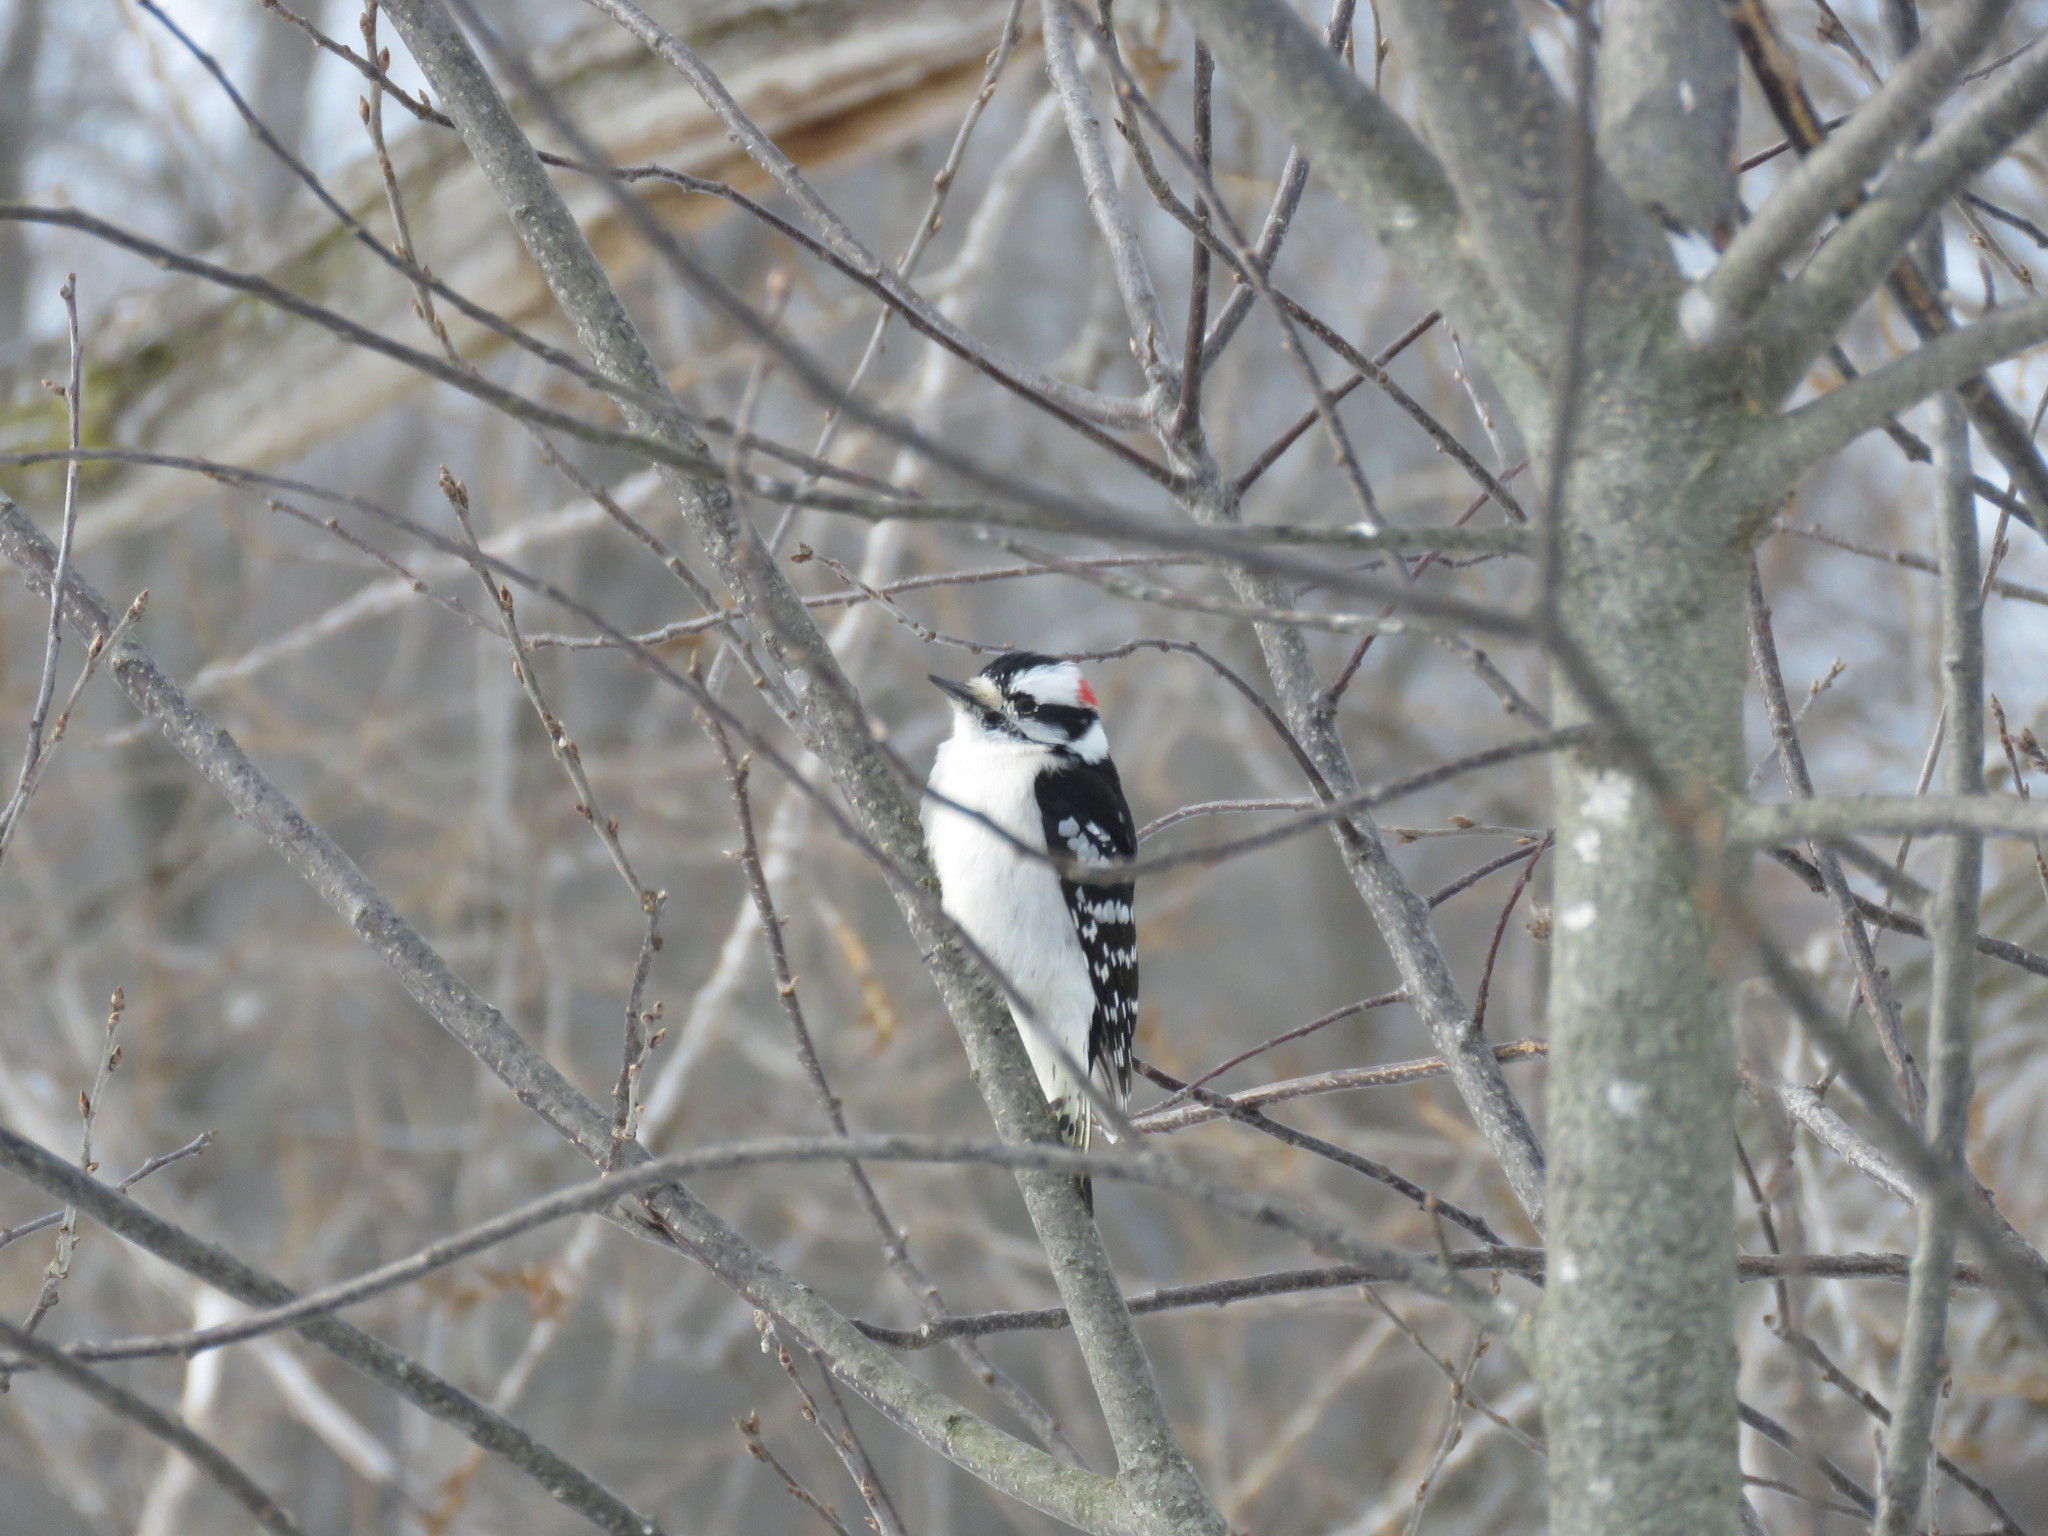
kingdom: Animalia
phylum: Chordata
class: Aves
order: Piciformes
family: Picidae
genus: Dryobates
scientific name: Dryobates pubescens
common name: Downy woodpecker
